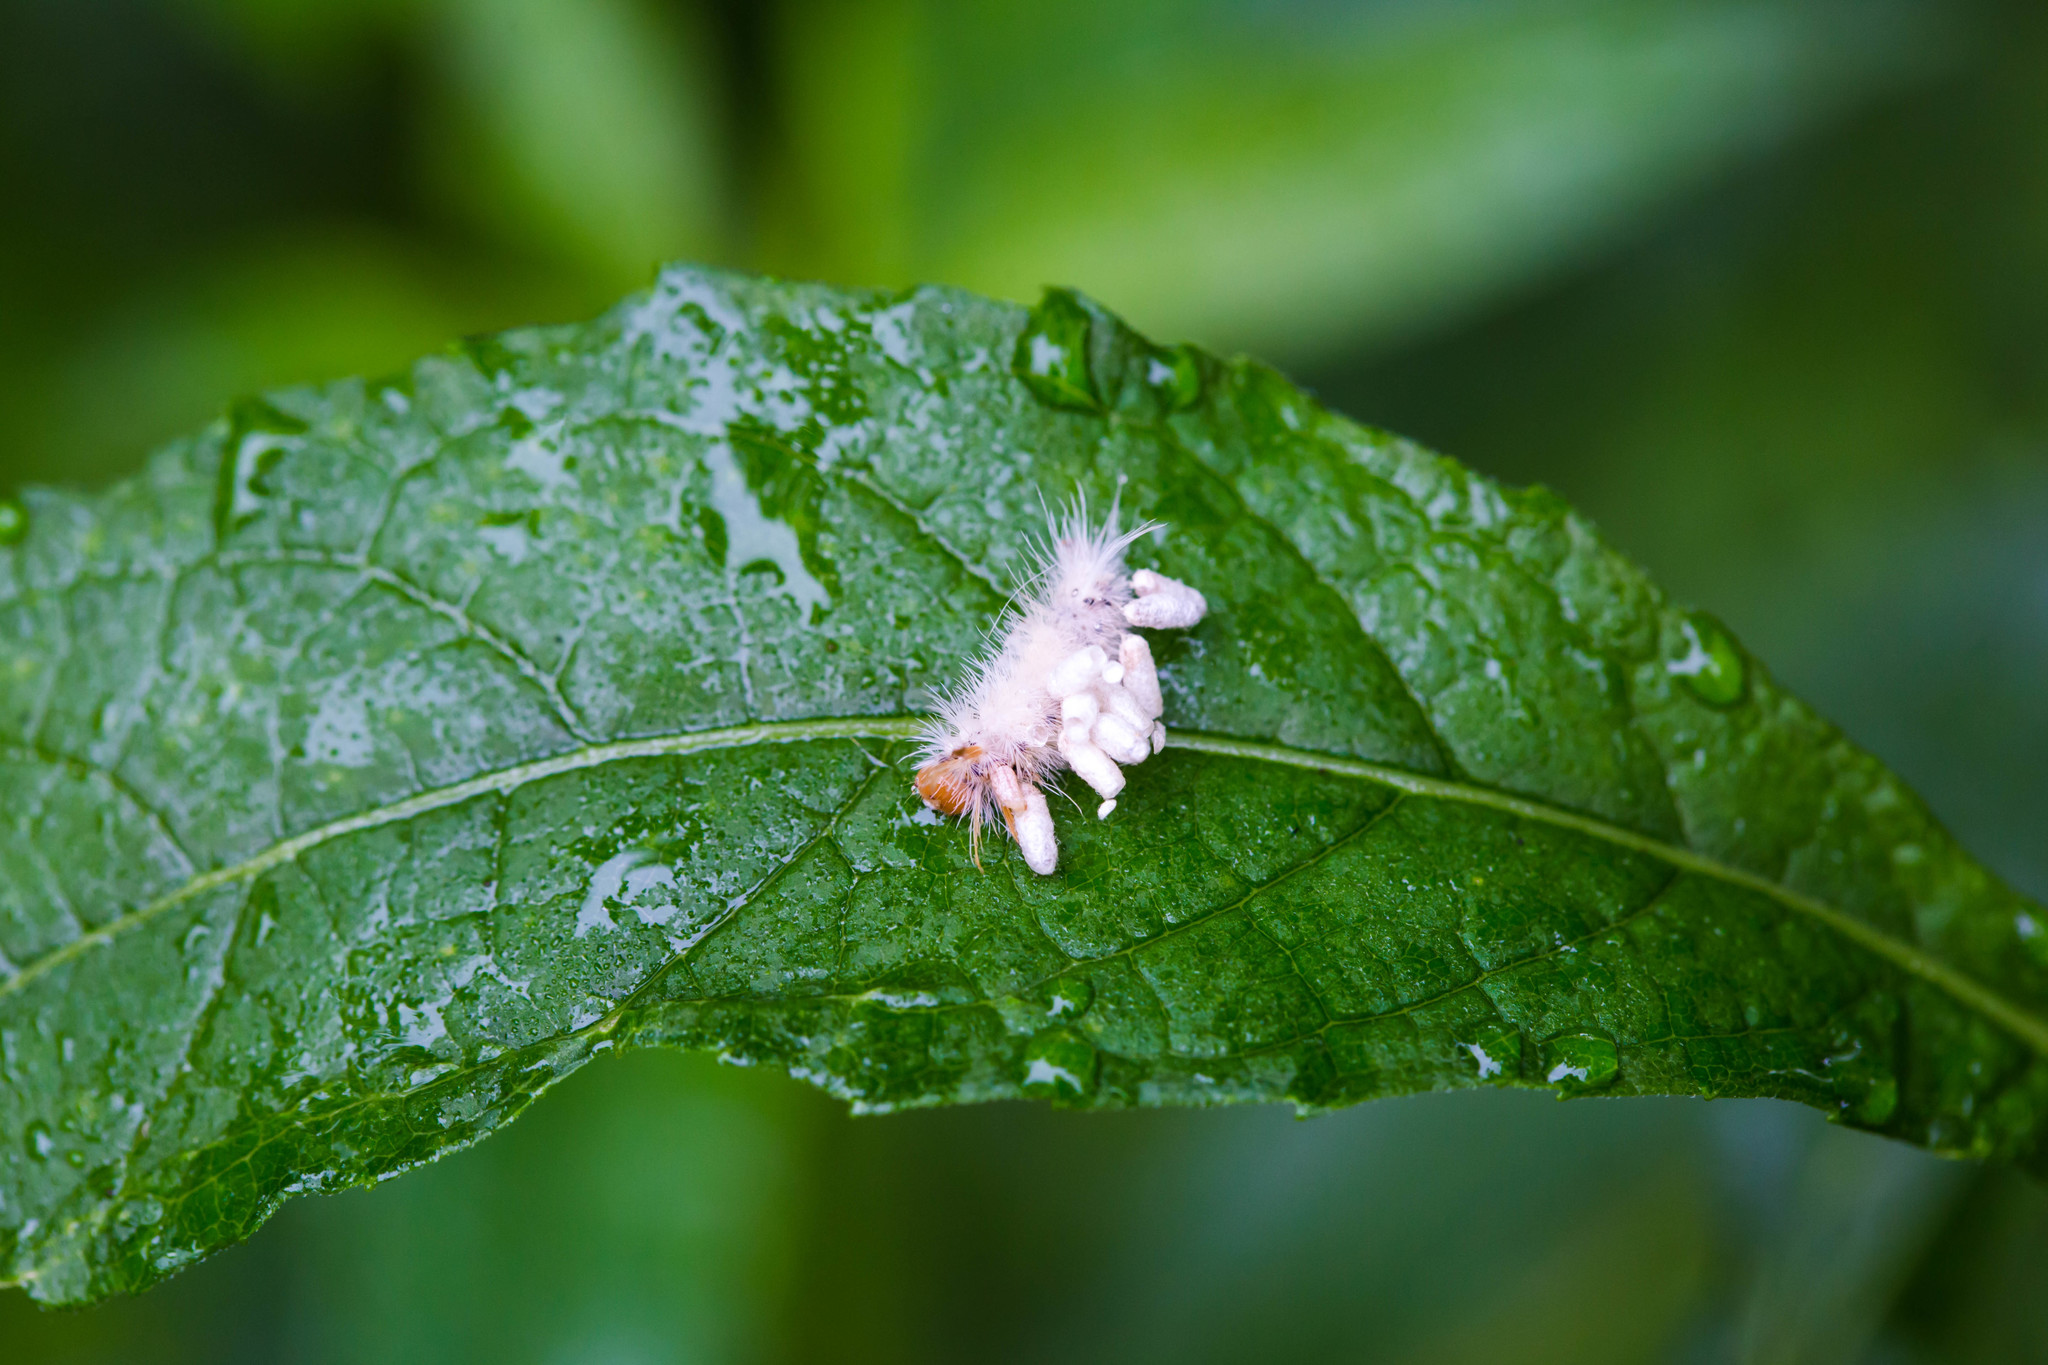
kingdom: Animalia
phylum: Arthropoda
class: Insecta
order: Lepidoptera
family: Erebidae
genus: Halysidota
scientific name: Halysidota harrisii
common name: Sycamore tussock moth
